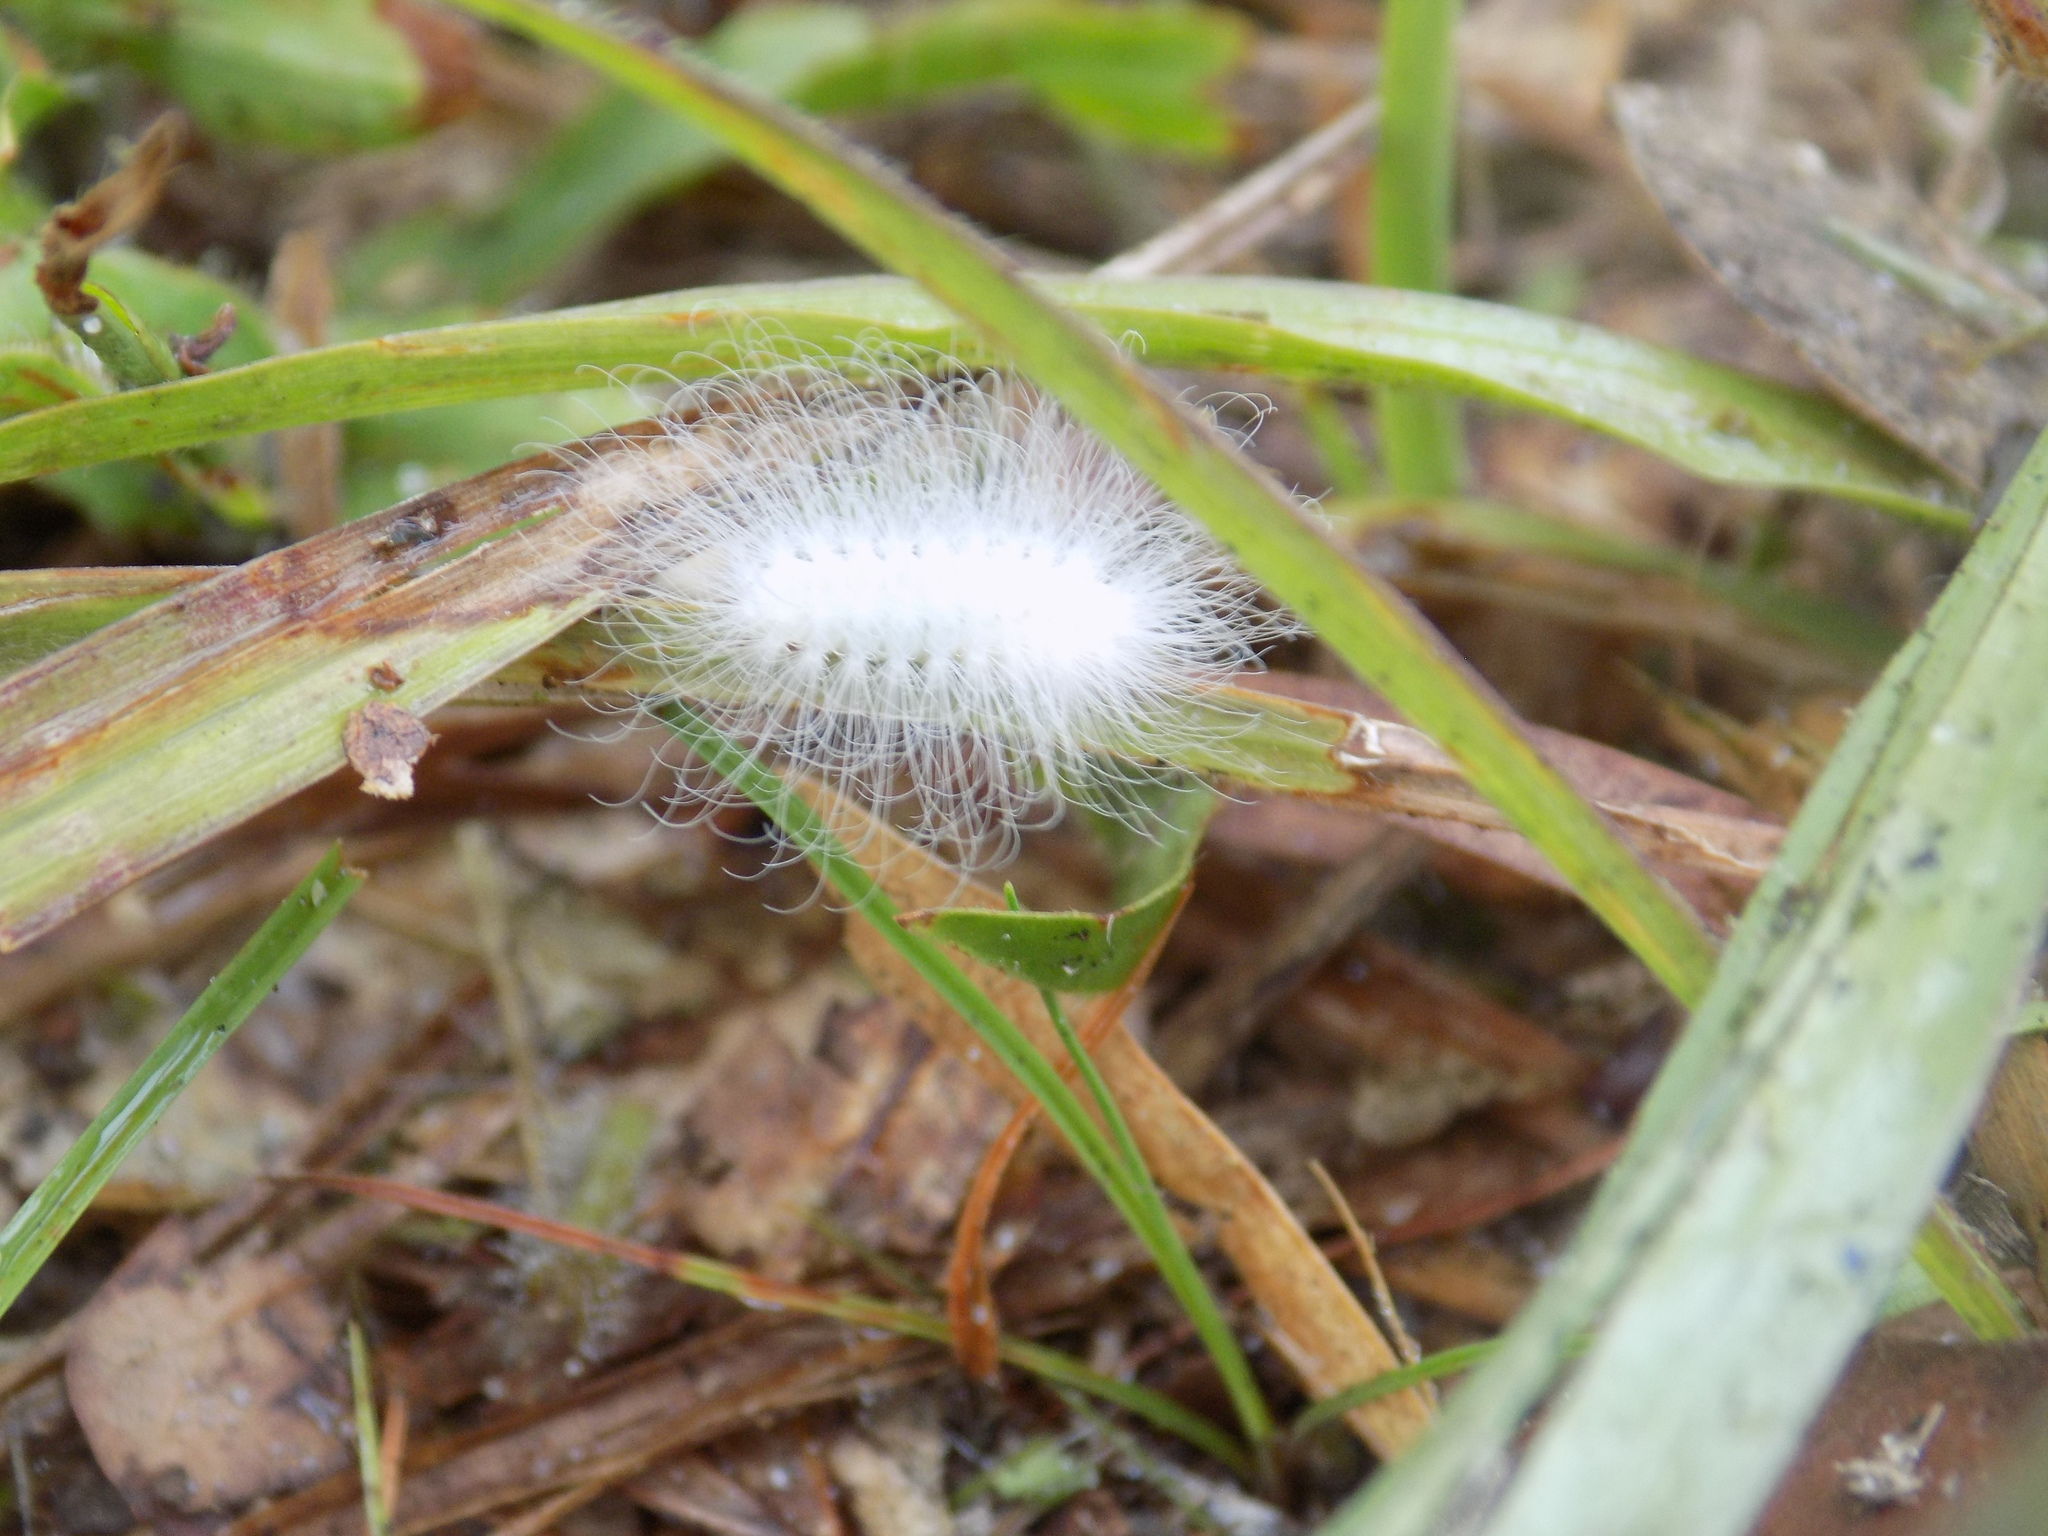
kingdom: Animalia
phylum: Arthropoda
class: Insecta
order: Lepidoptera
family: Megalopygidae
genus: Megalopyge
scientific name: Megalopyge
